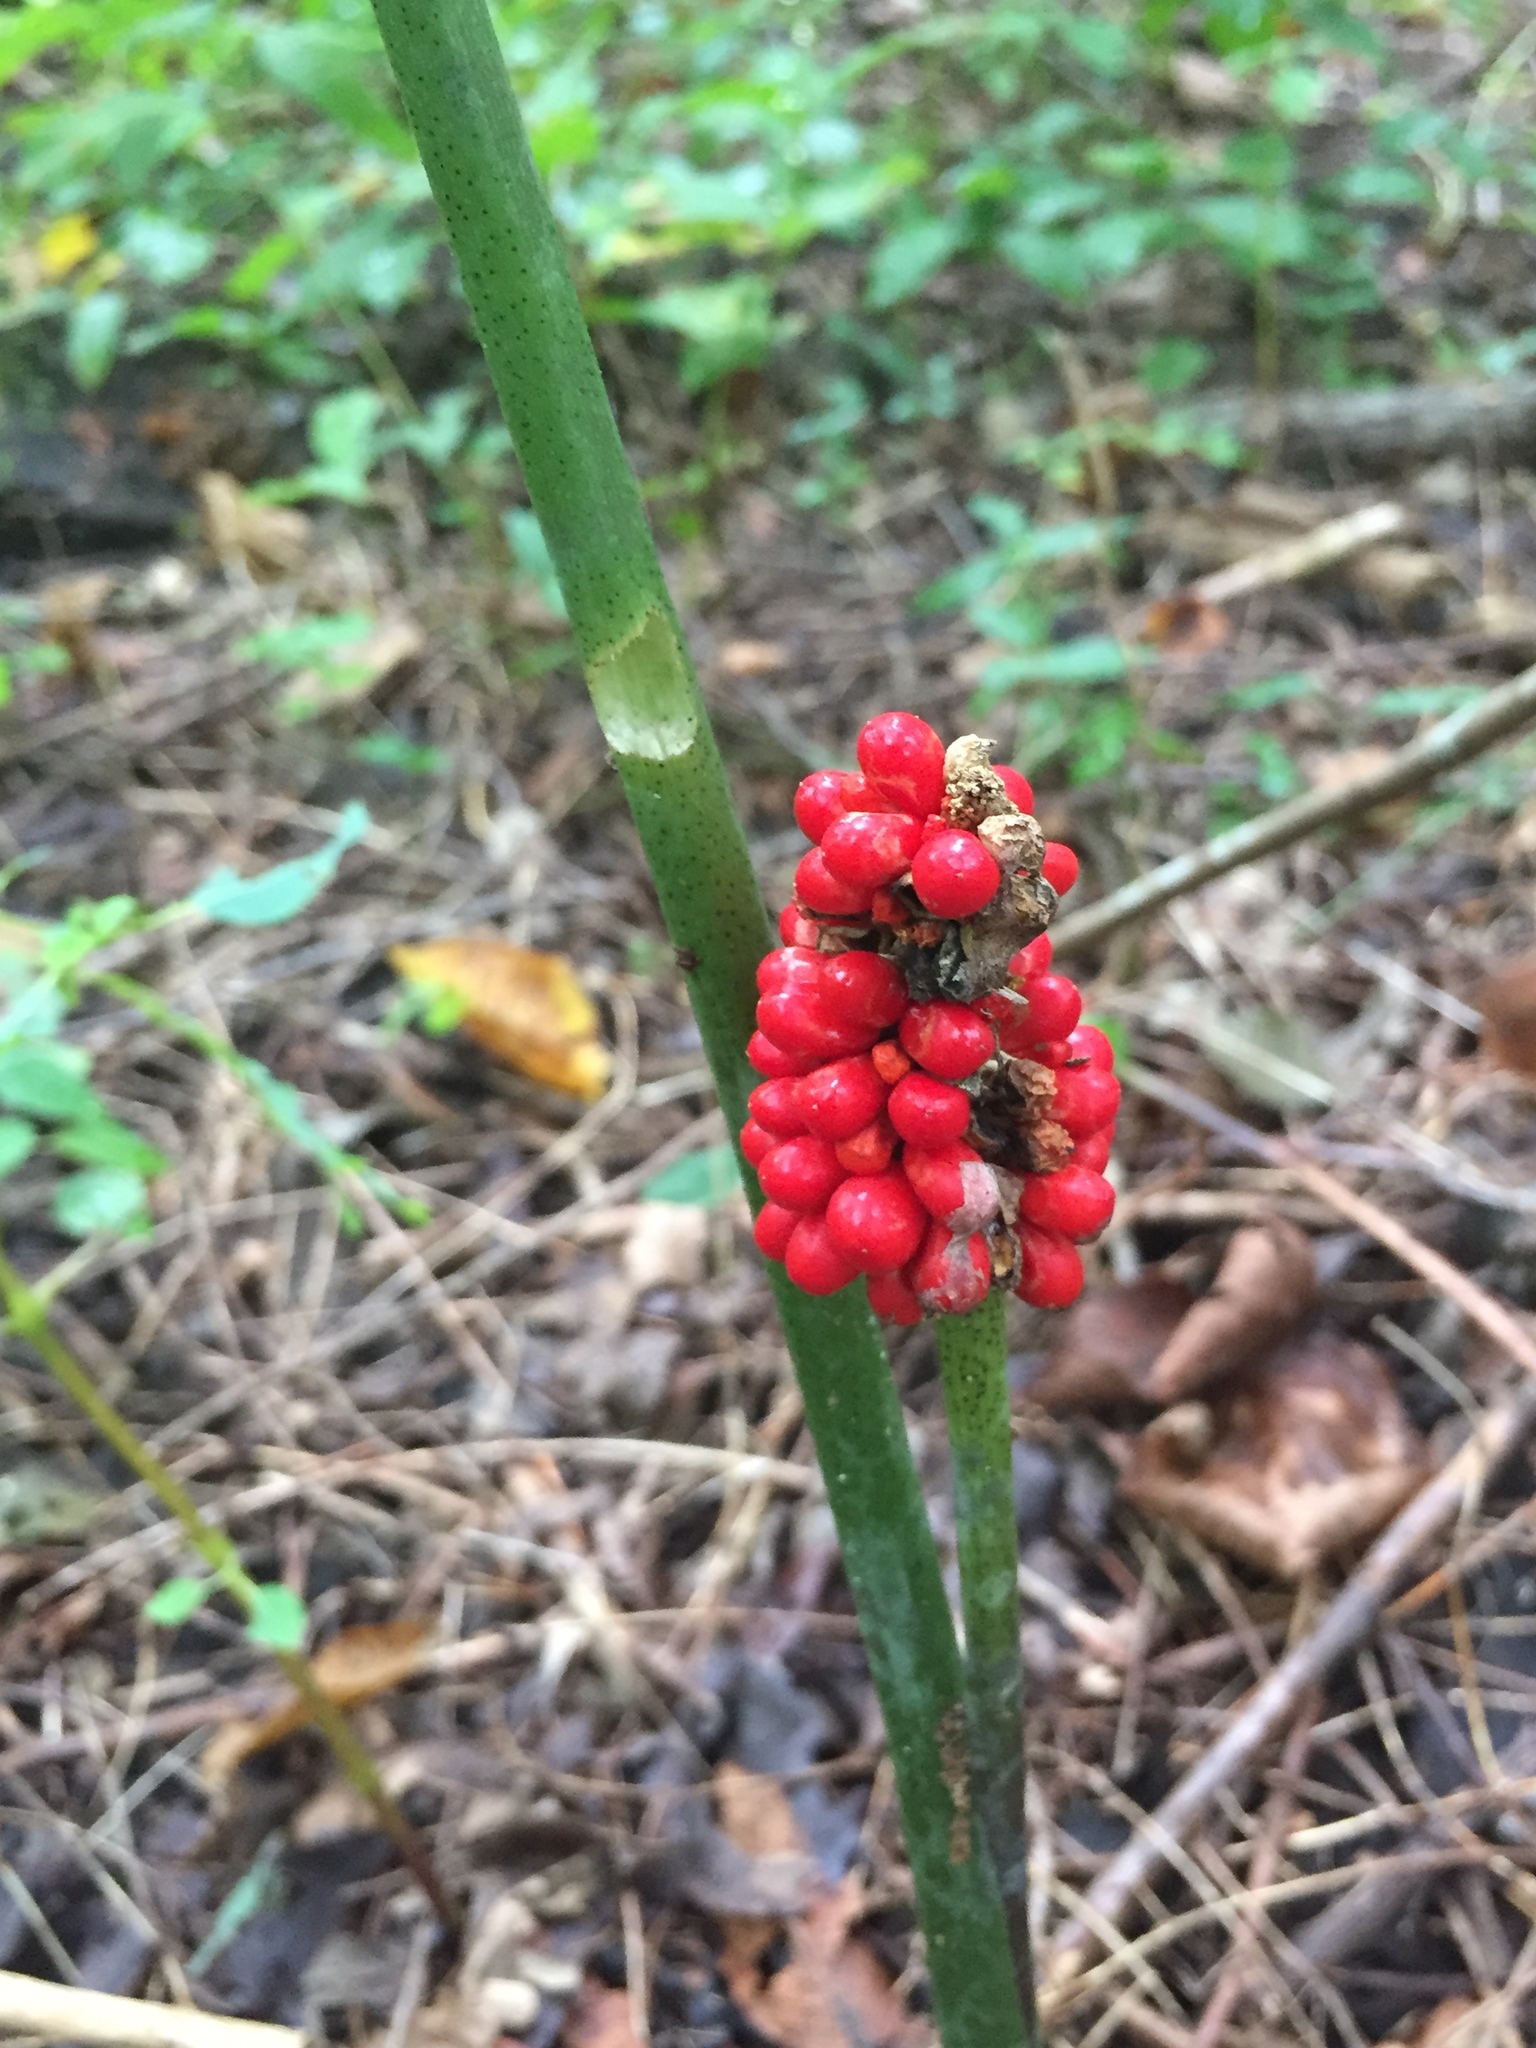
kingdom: Plantae
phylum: Tracheophyta
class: Liliopsida
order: Alismatales
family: Araceae
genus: Arisaema
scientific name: Arisaema dracontium
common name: Dragon-arum
